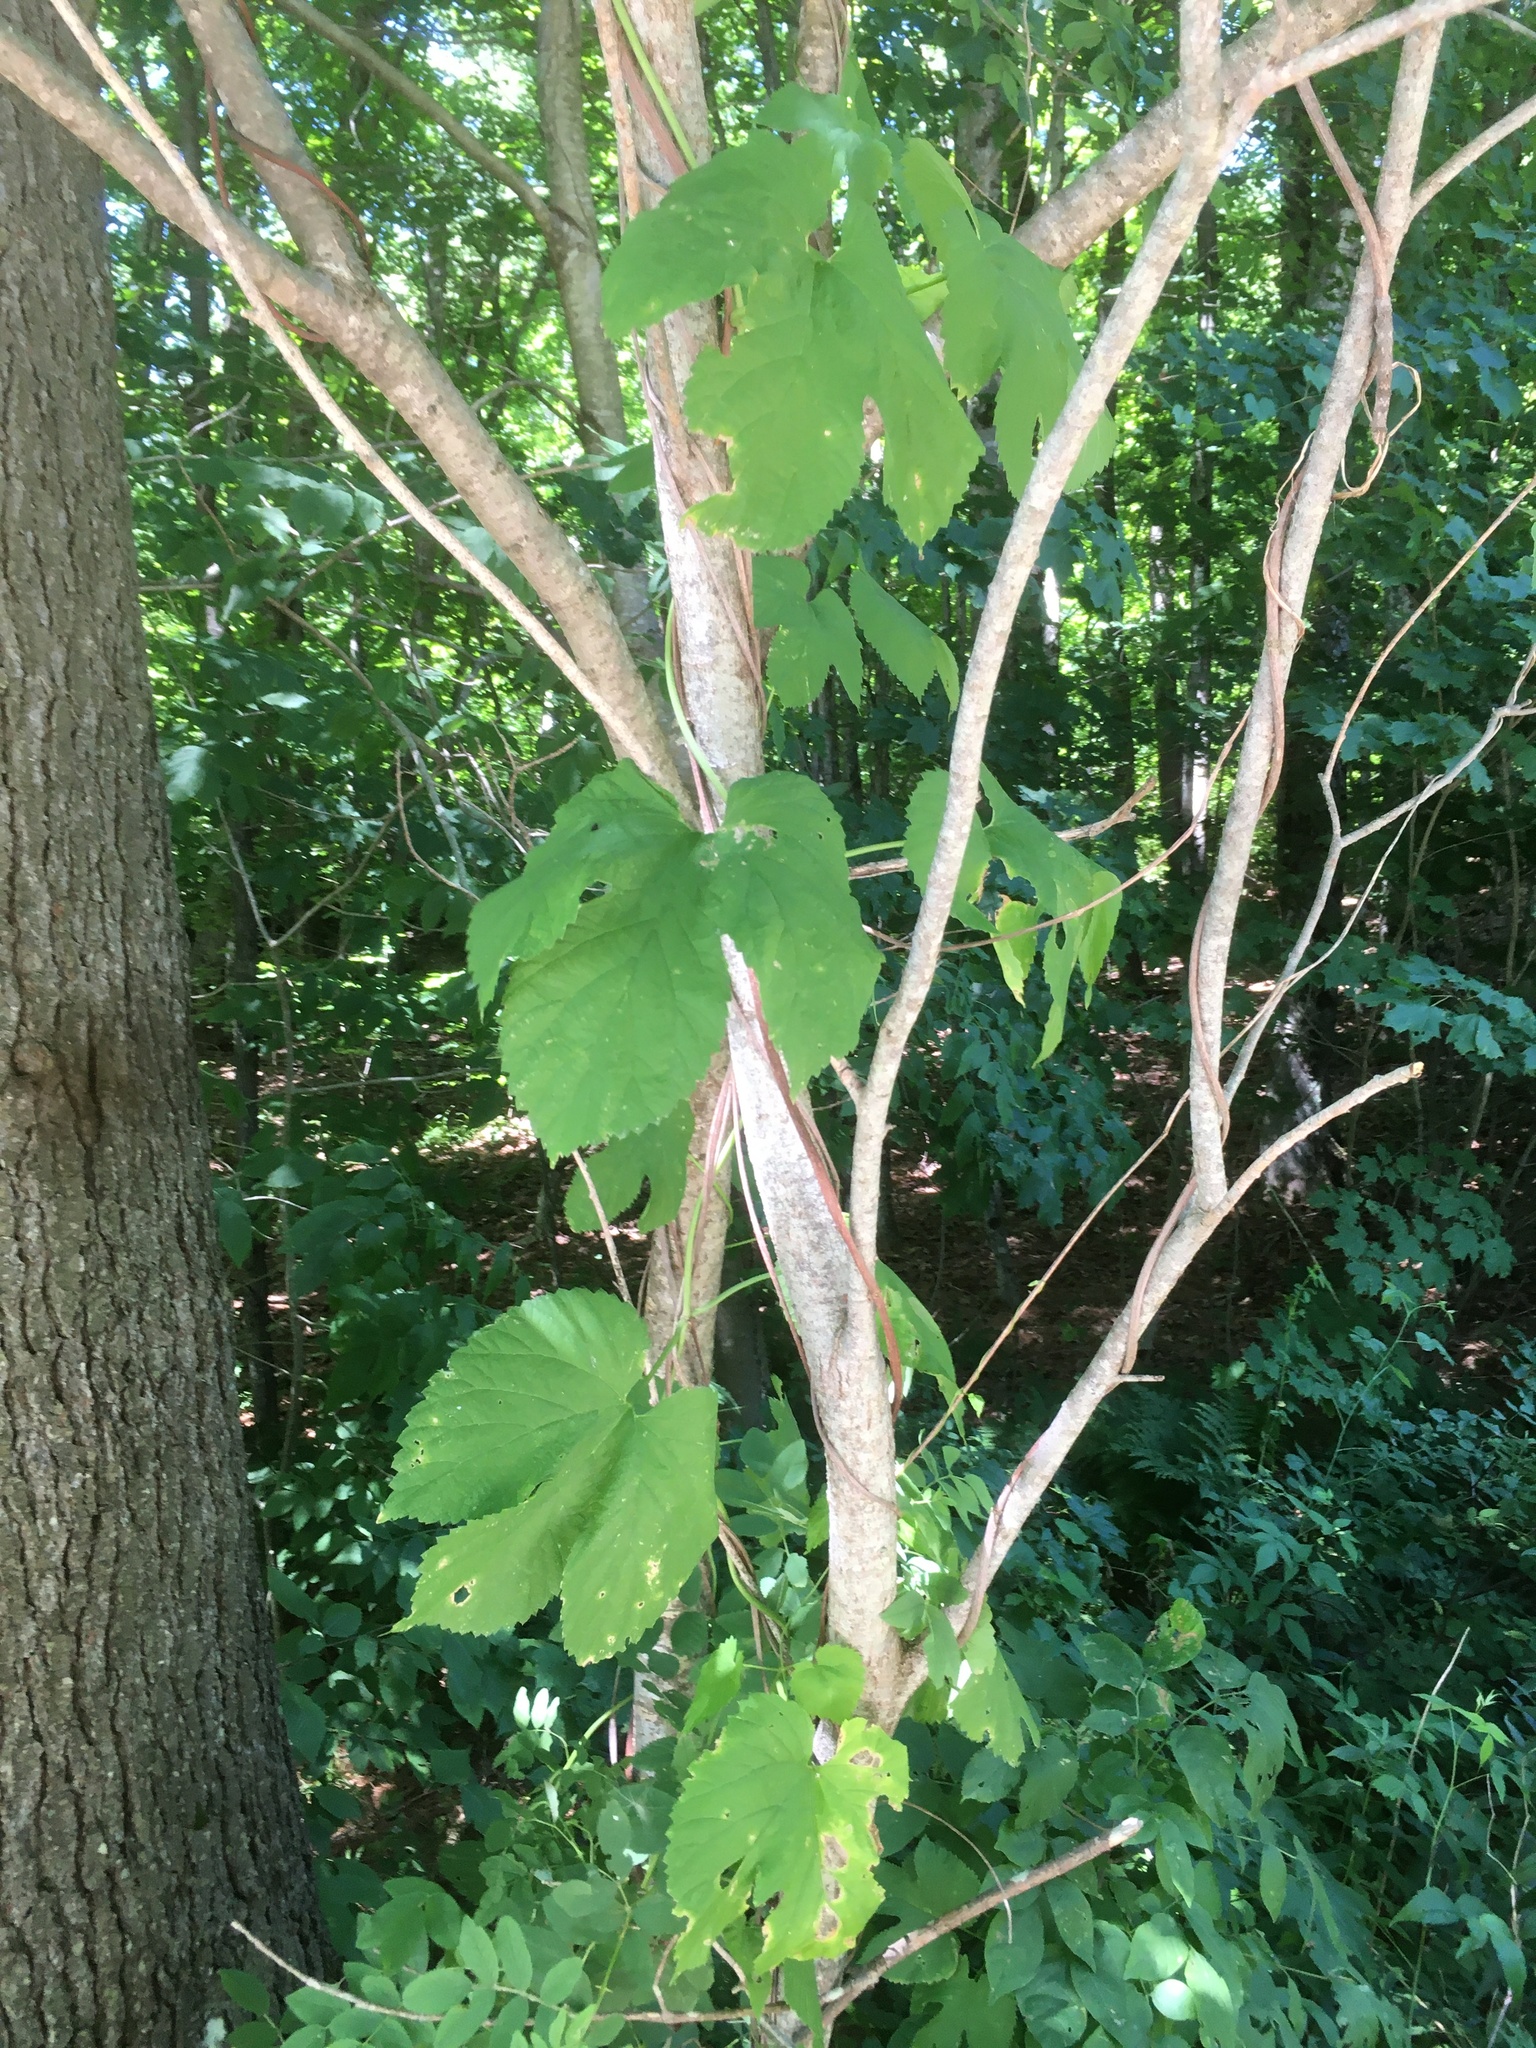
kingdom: Plantae
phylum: Tracheophyta
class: Magnoliopsida
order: Rosales
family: Cannabaceae
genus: Humulus
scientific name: Humulus lupulus
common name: Hop
